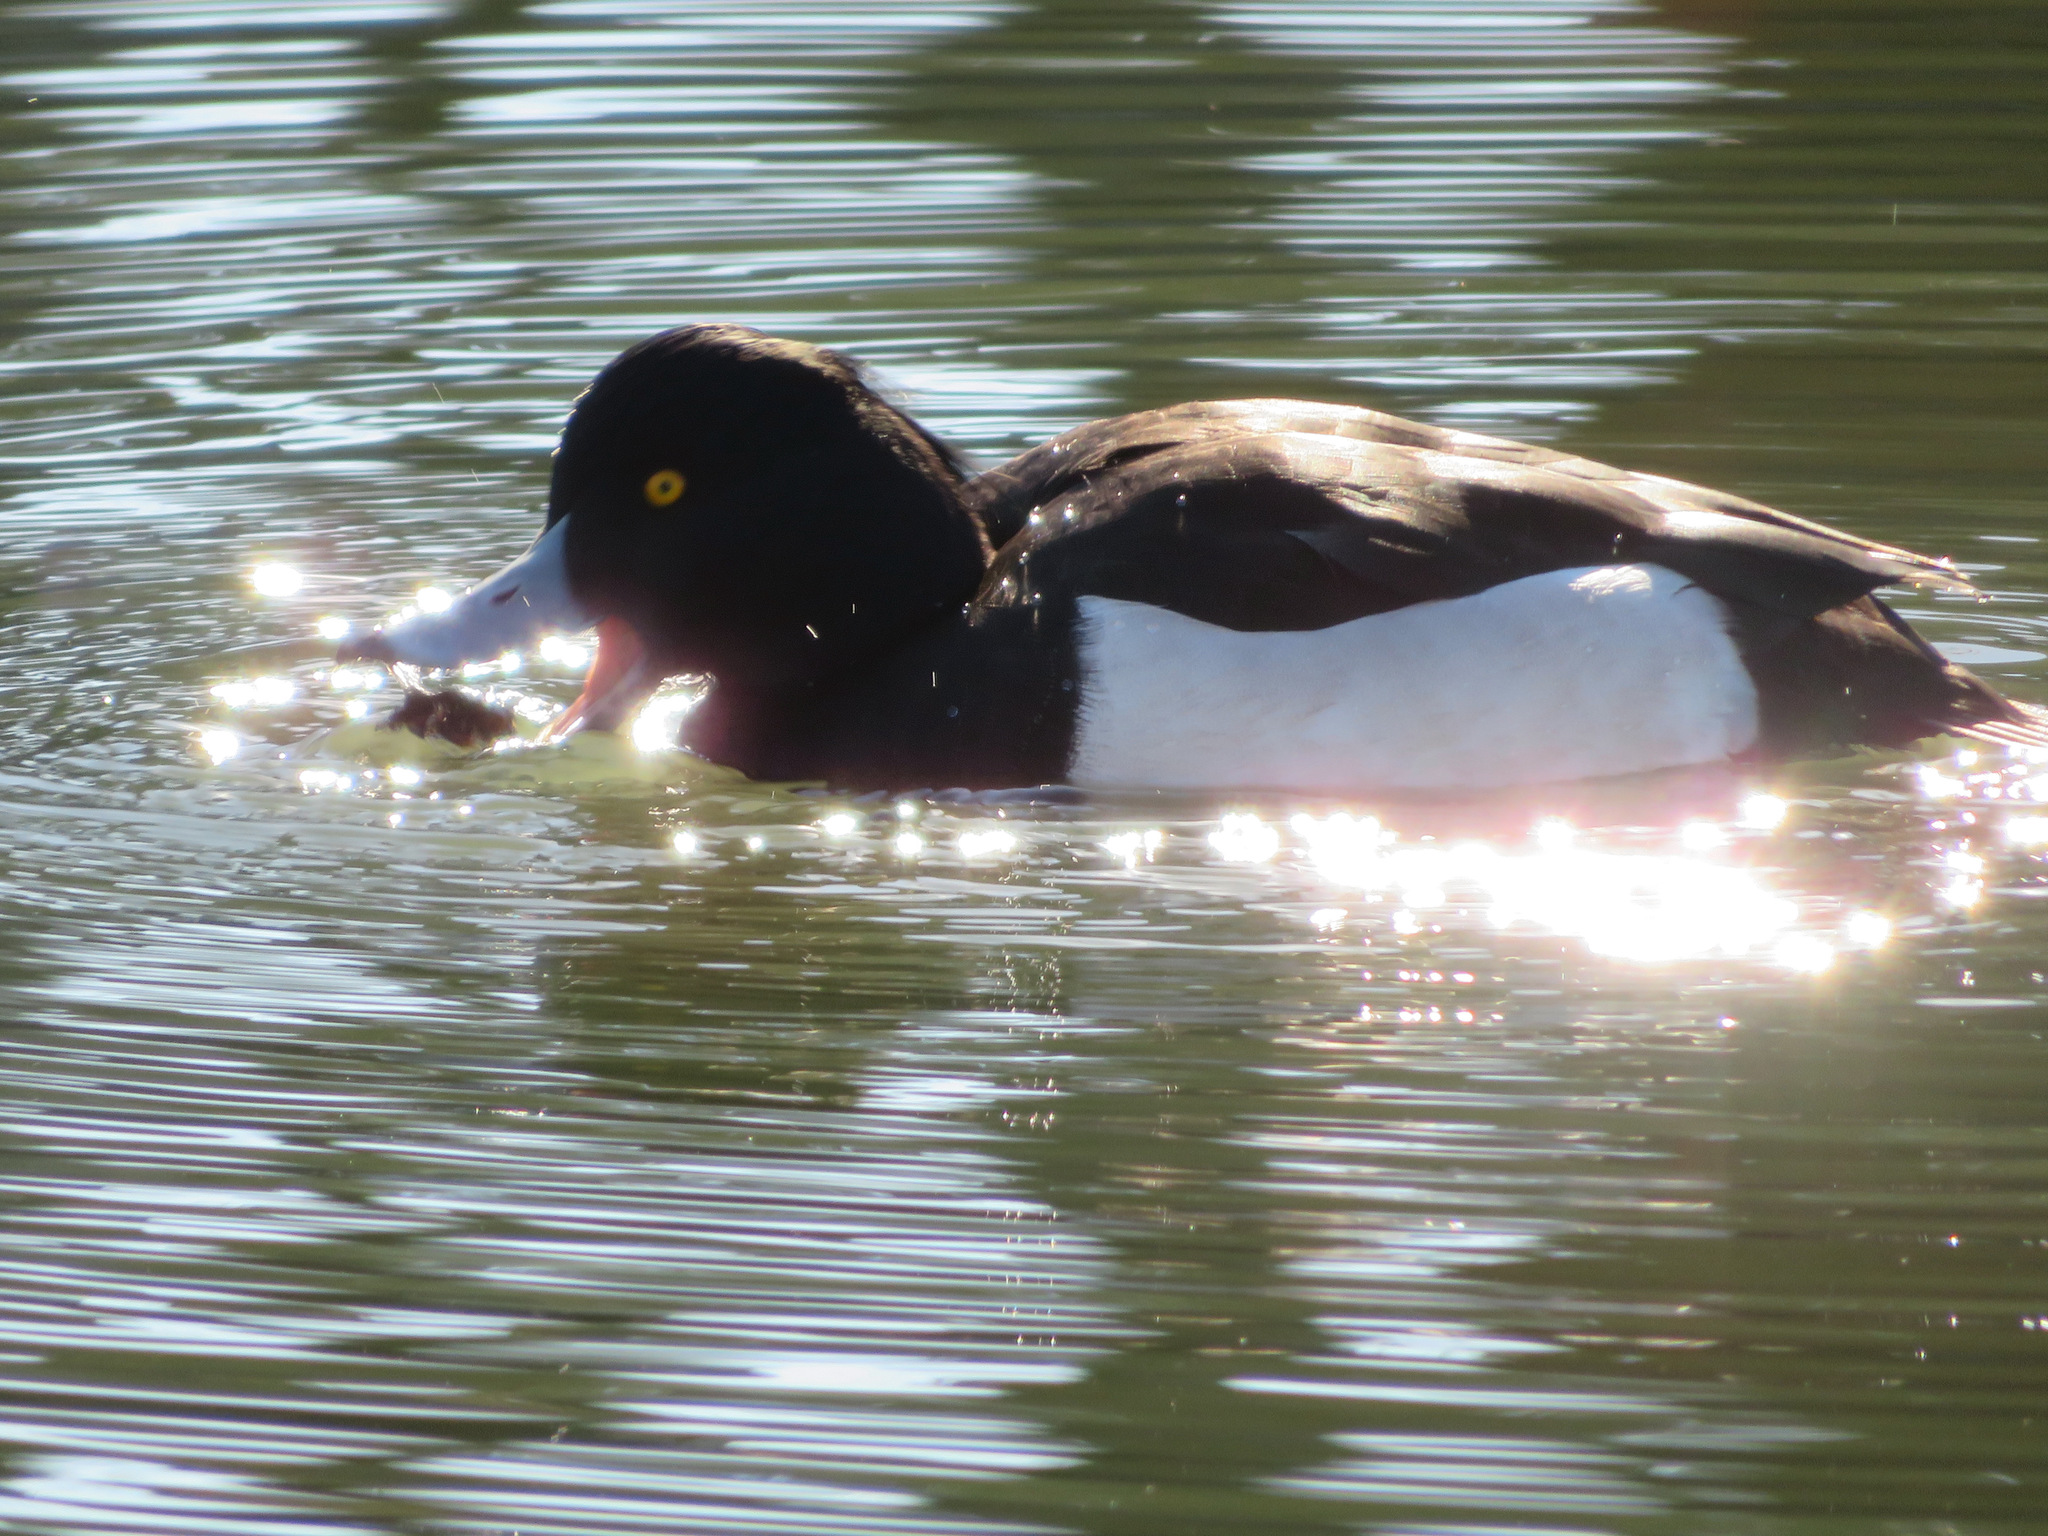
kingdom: Animalia
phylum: Chordata
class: Aves
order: Anseriformes
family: Anatidae
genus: Aythya
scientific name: Aythya fuligula
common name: Tufted duck
